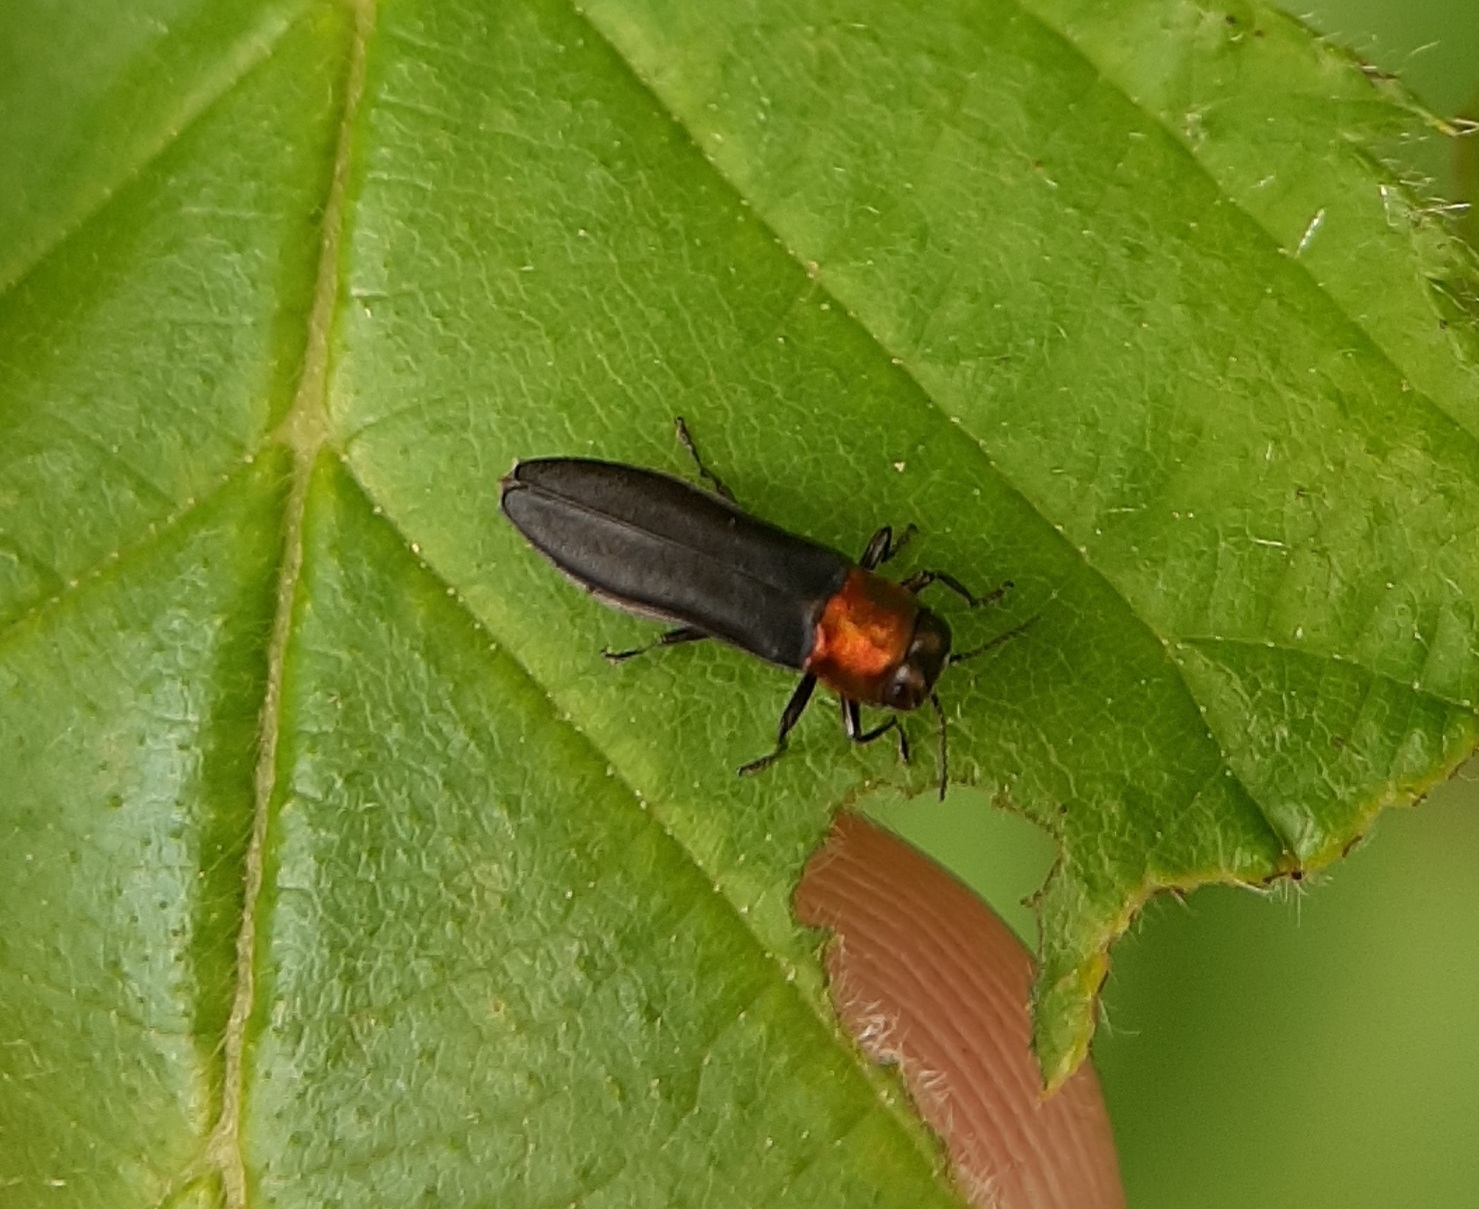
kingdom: Animalia
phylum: Arthropoda
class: Insecta
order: Coleoptera
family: Buprestidae
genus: Agrilus
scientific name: Agrilus ruficollis
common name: Red-necked cane borer beetle
